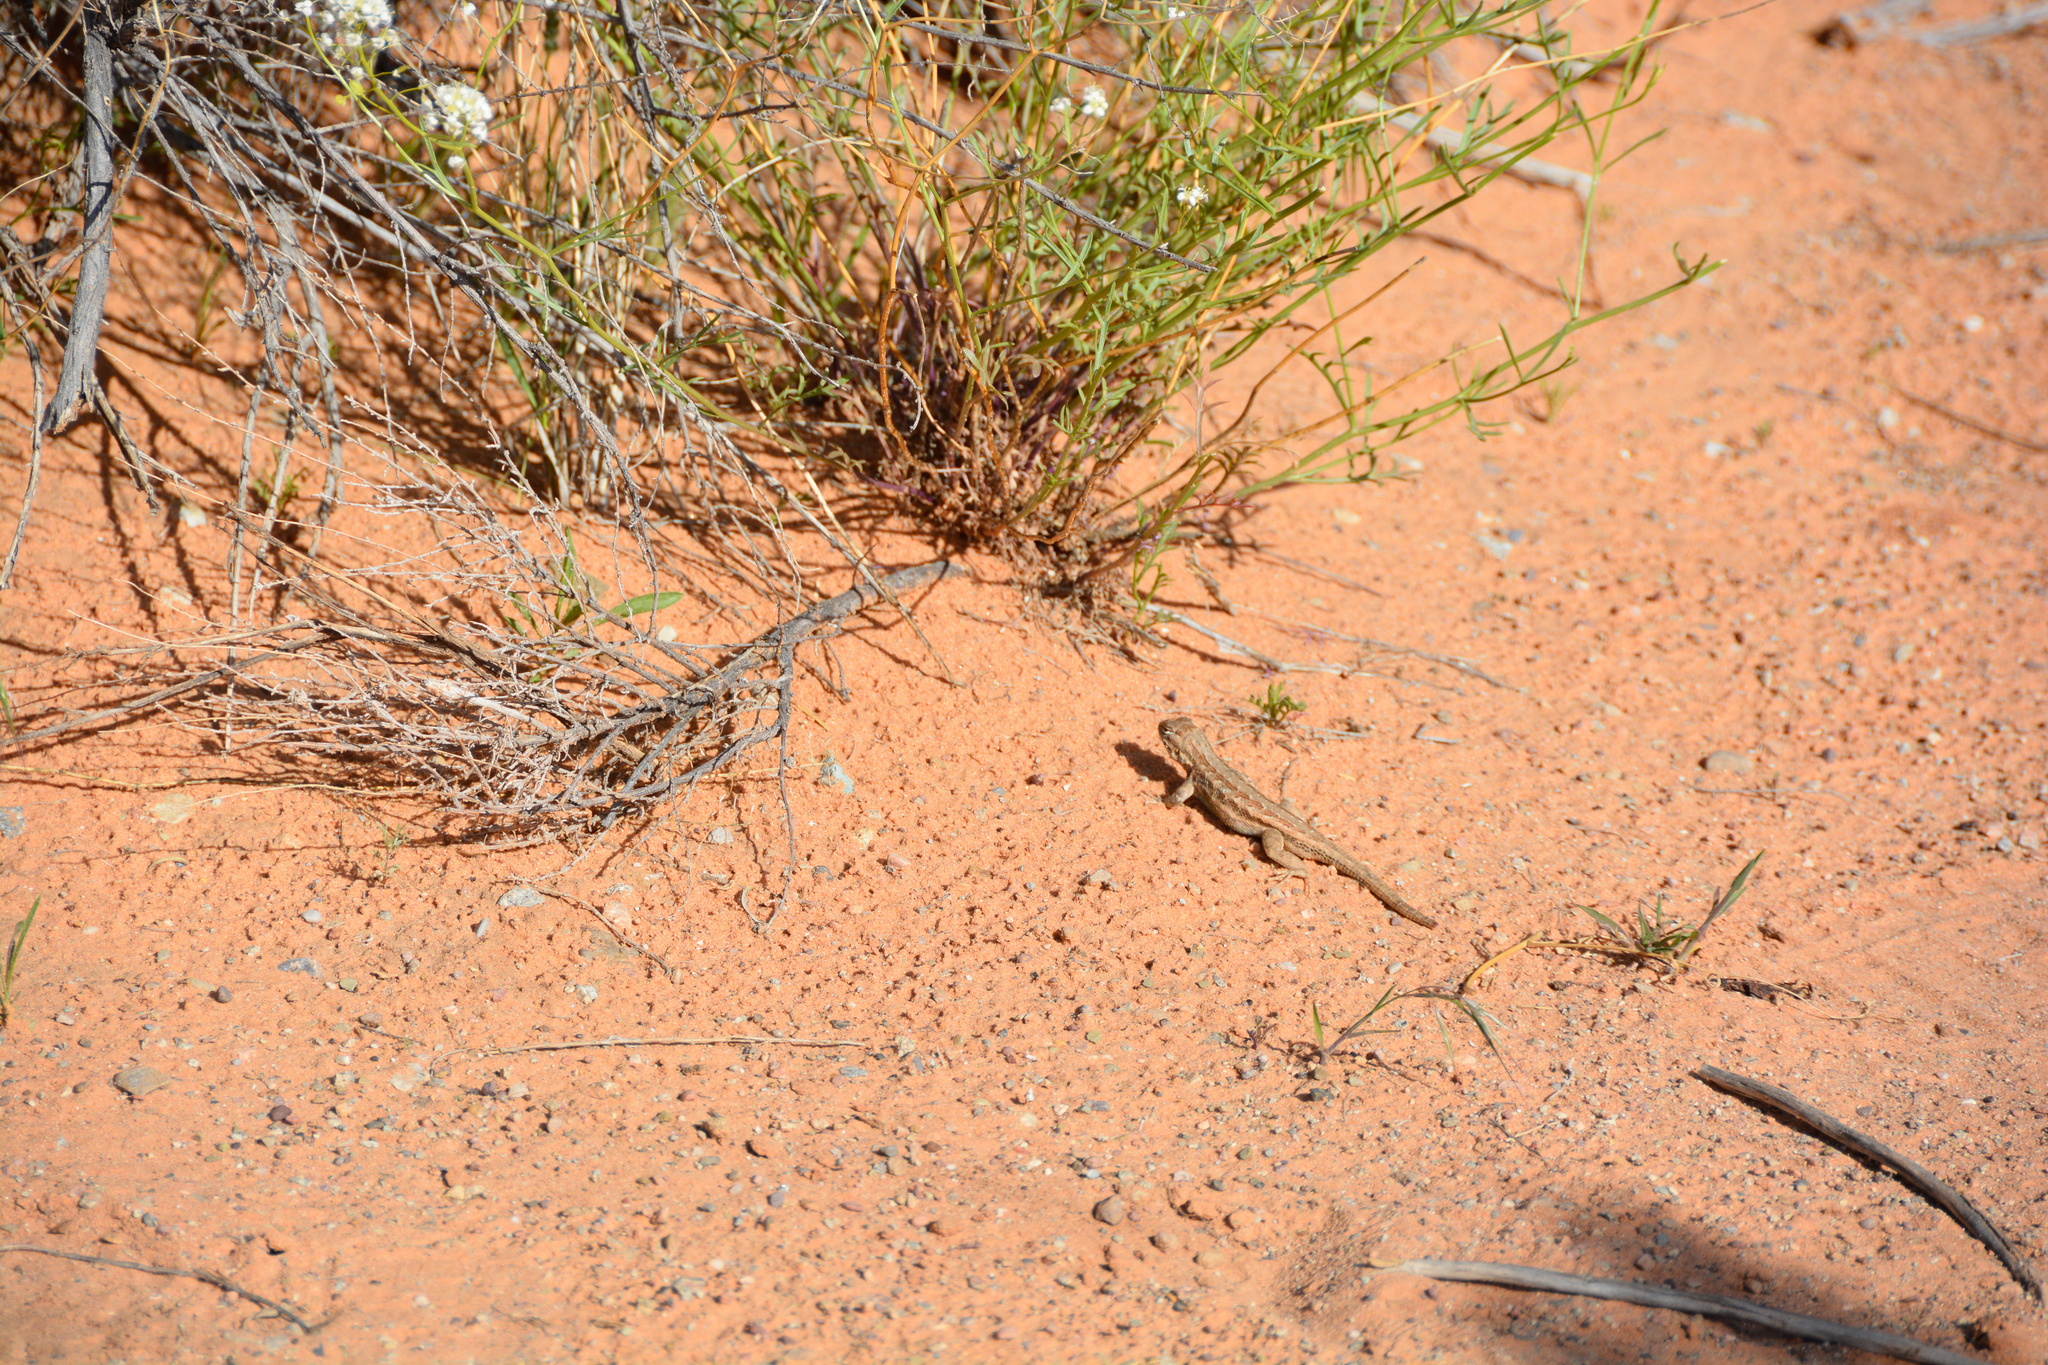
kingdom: Animalia
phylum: Chordata
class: Squamata
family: Phrynosomatidae
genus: Sceloporus
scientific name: Sceloporus graciosus
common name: Sagebrush lizard
